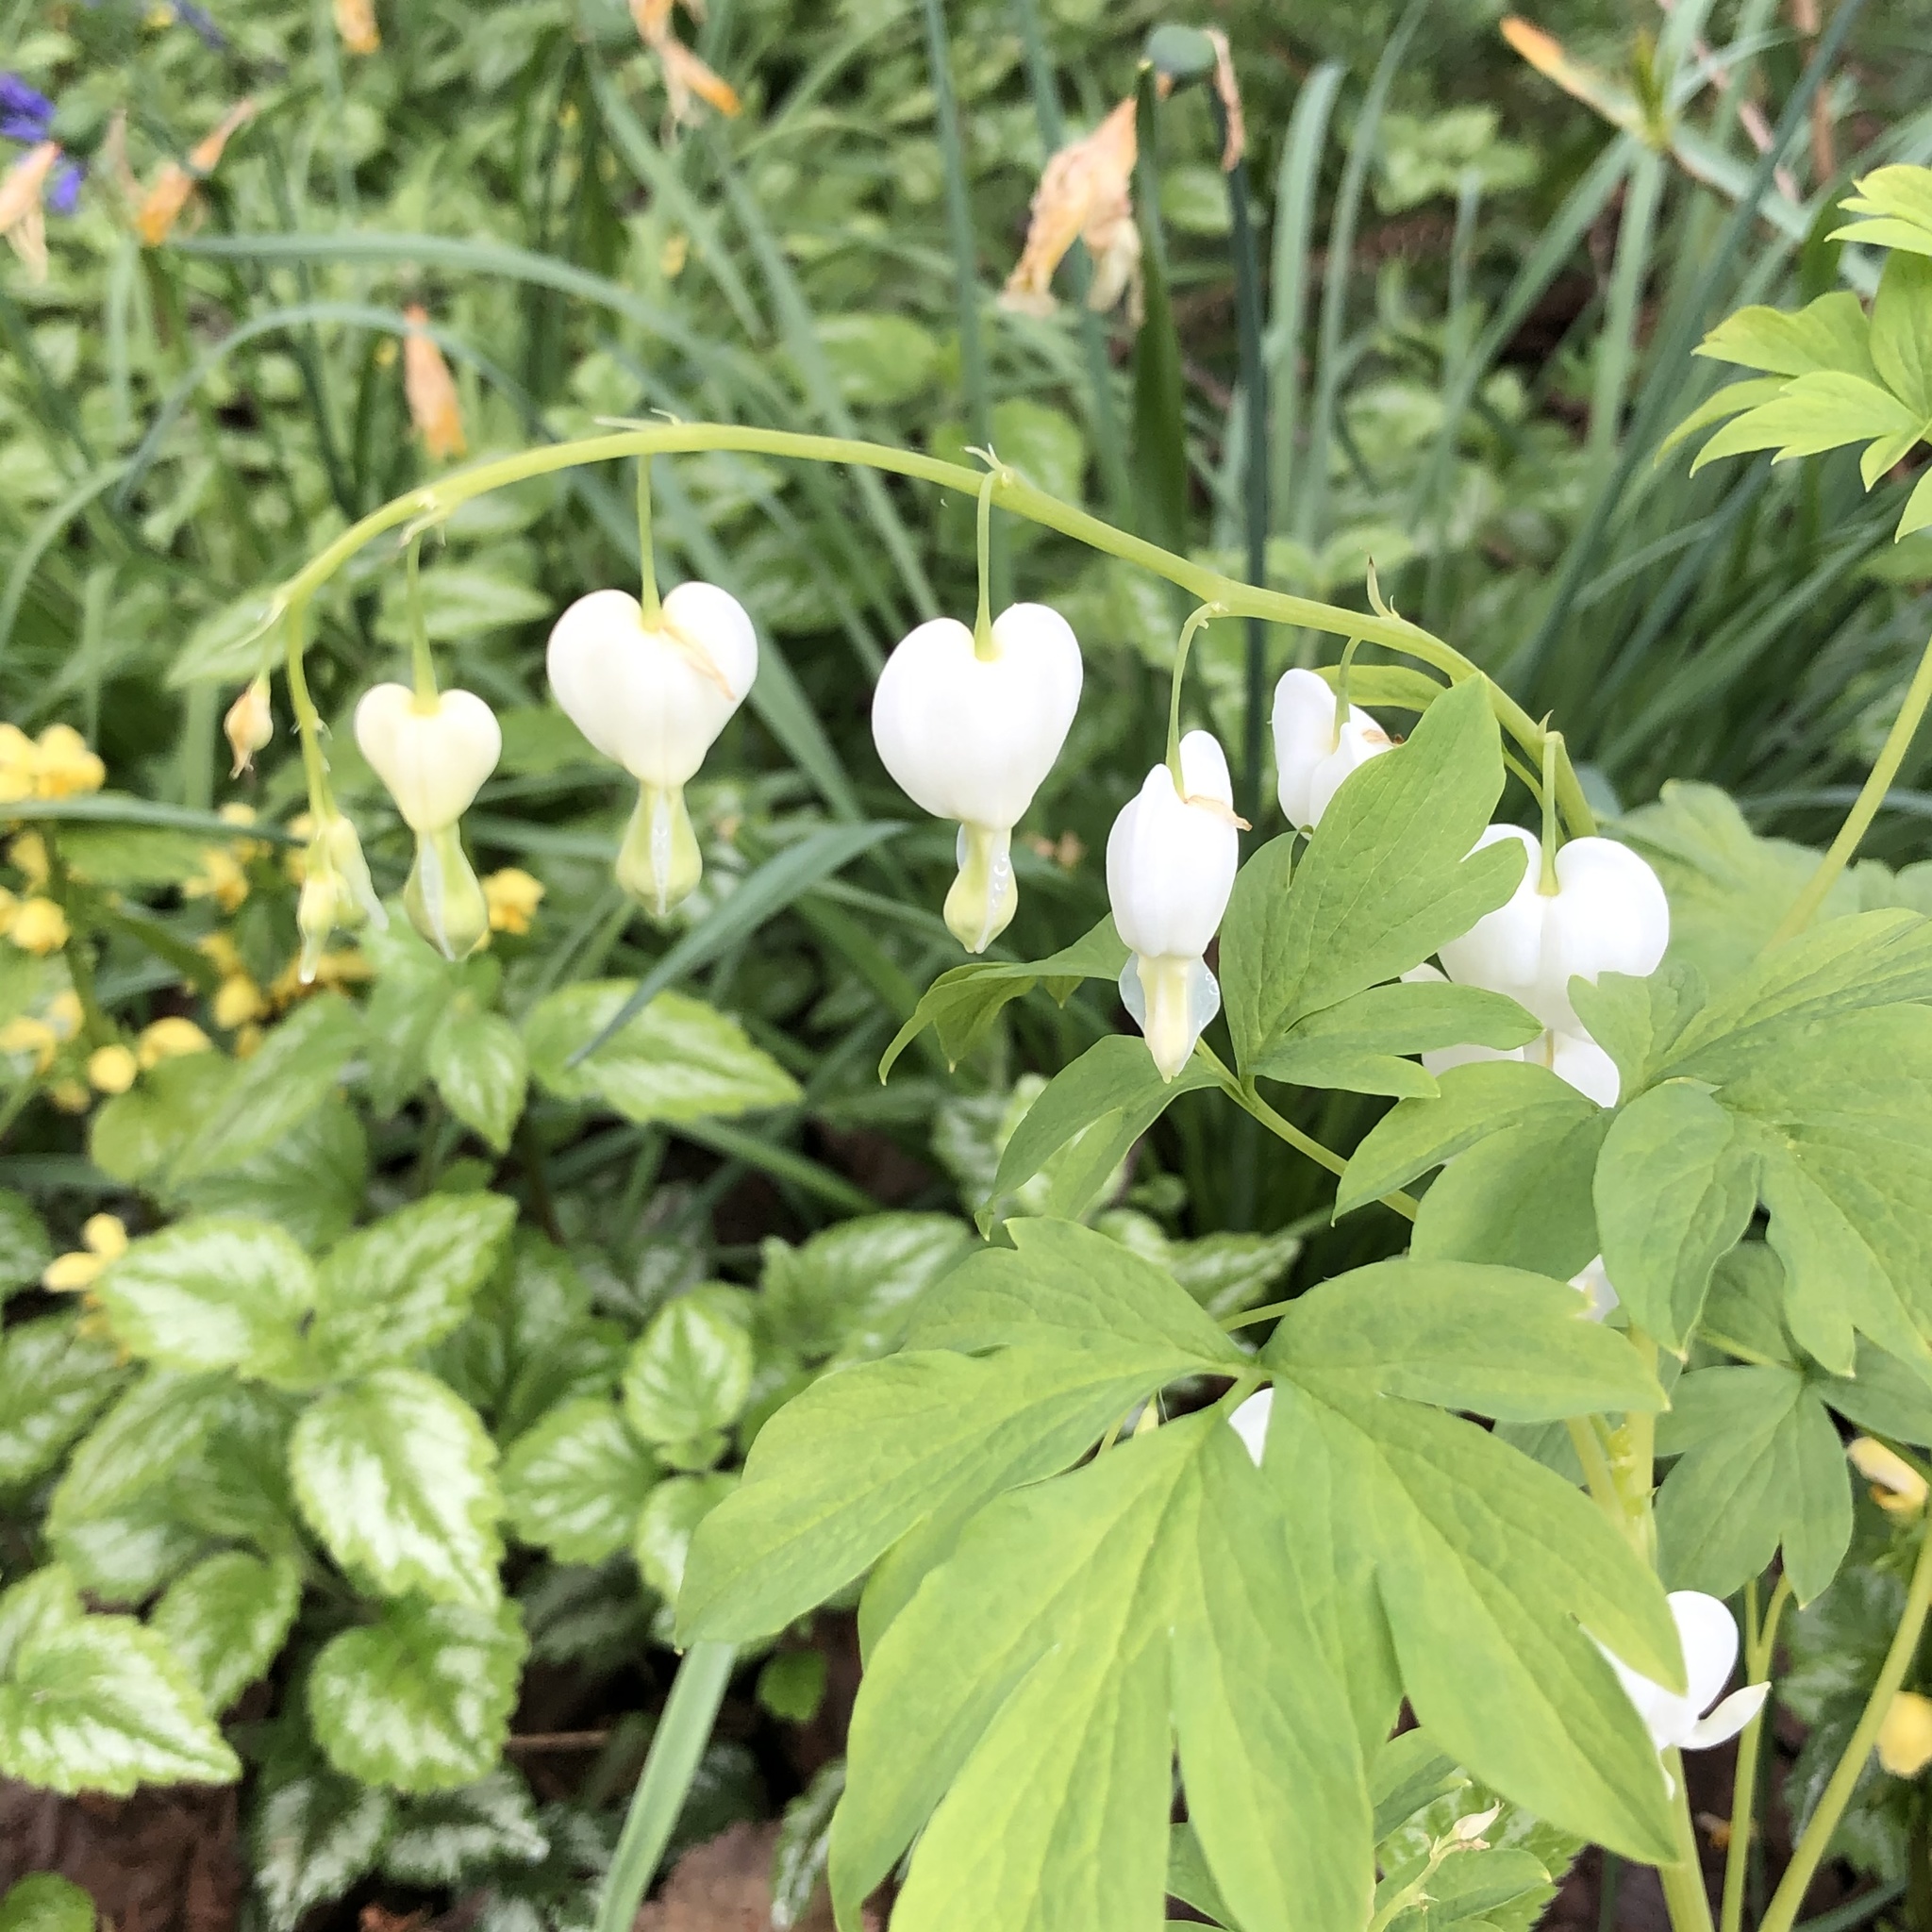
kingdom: Plantae
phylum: Tracheophyta
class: Magnoliopsida
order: Ranunculales
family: Papaveraceae
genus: Lamprocapnos
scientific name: Lamprocapnos spectabilis
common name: Asian bleeding-heart
